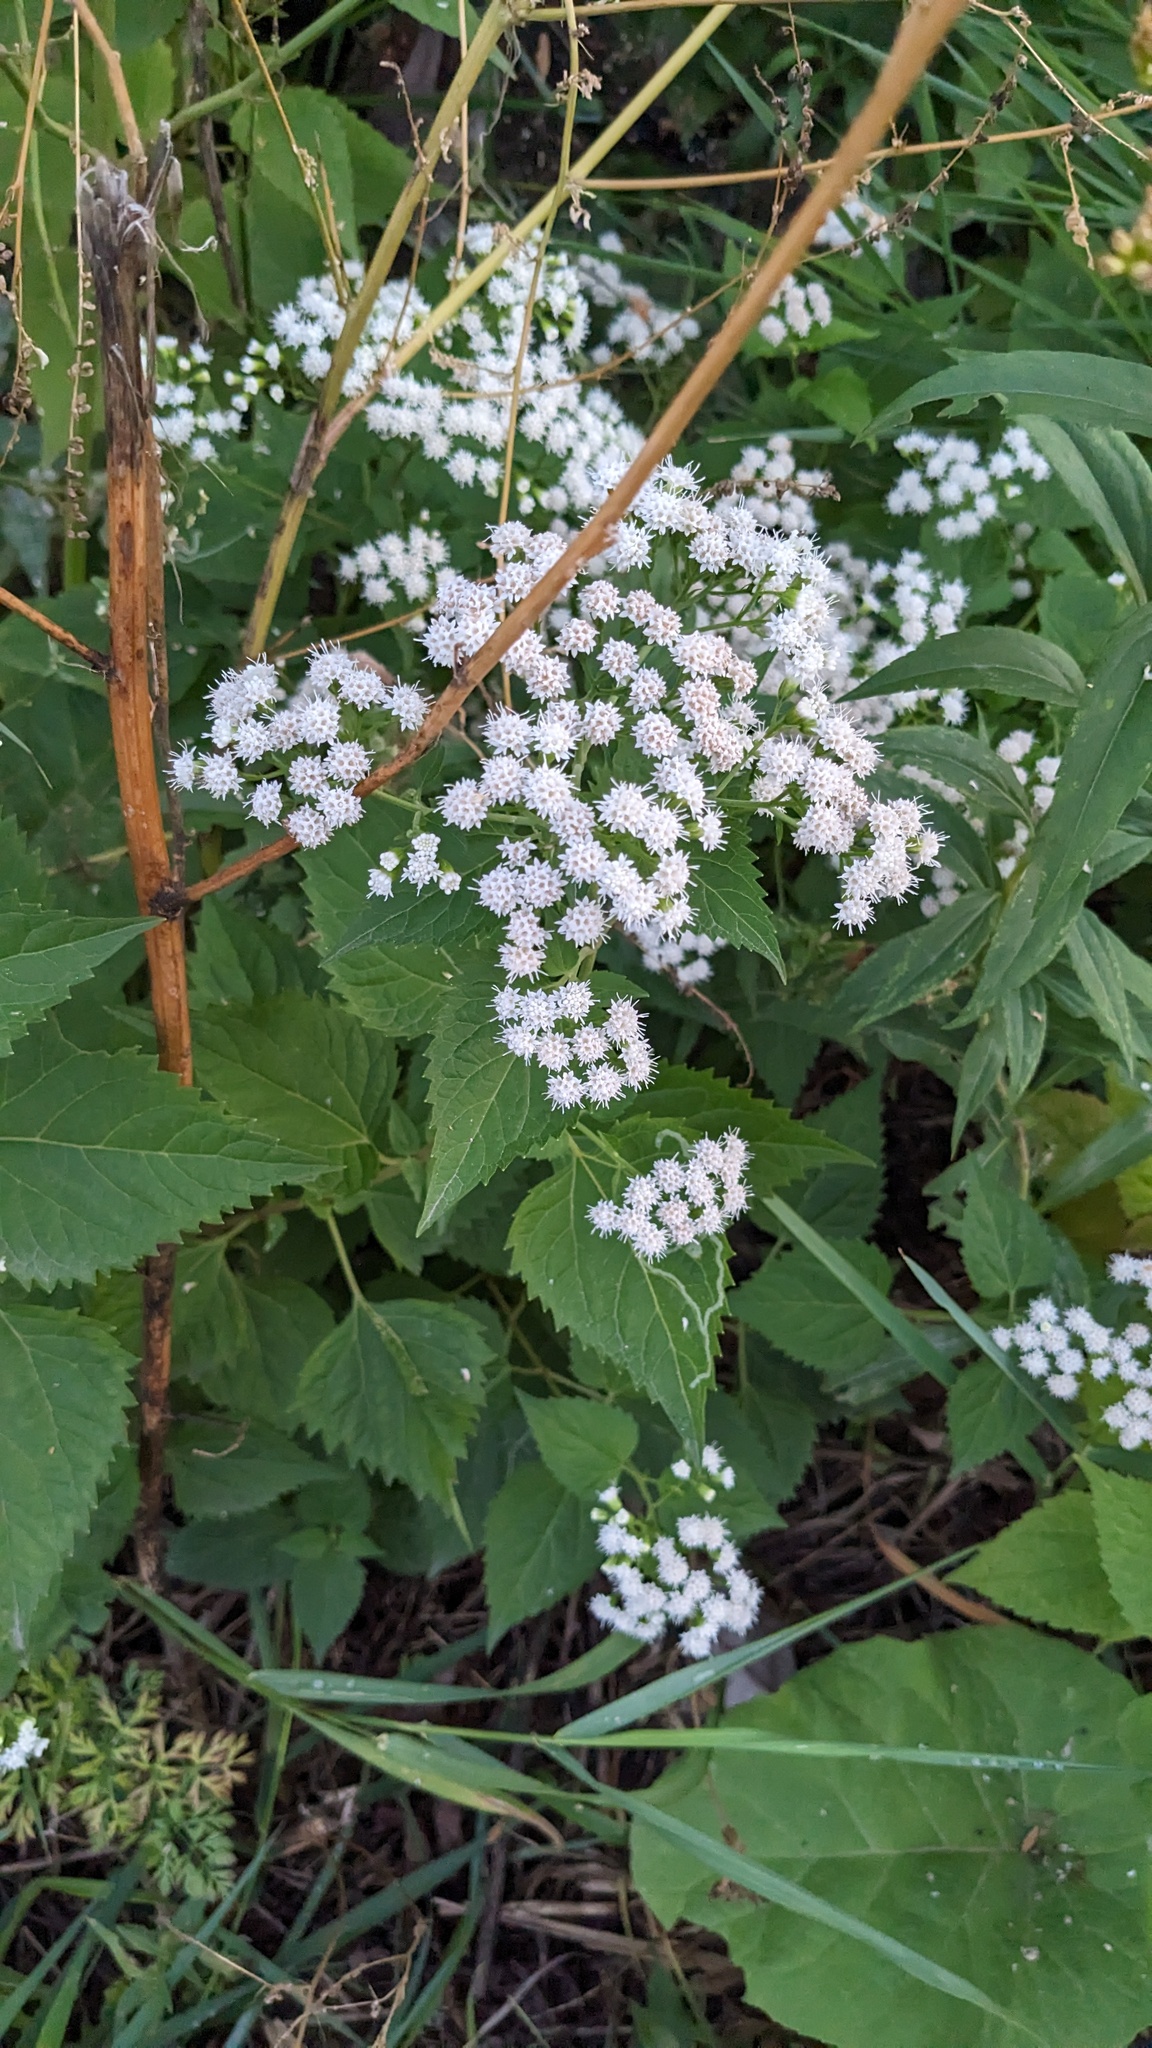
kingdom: Plantae
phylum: Tracheophyta
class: Magnoliopsida
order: Asterales
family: Asteraceae
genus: Ageratina
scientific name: Ageratina altissima
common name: White snakeroot
